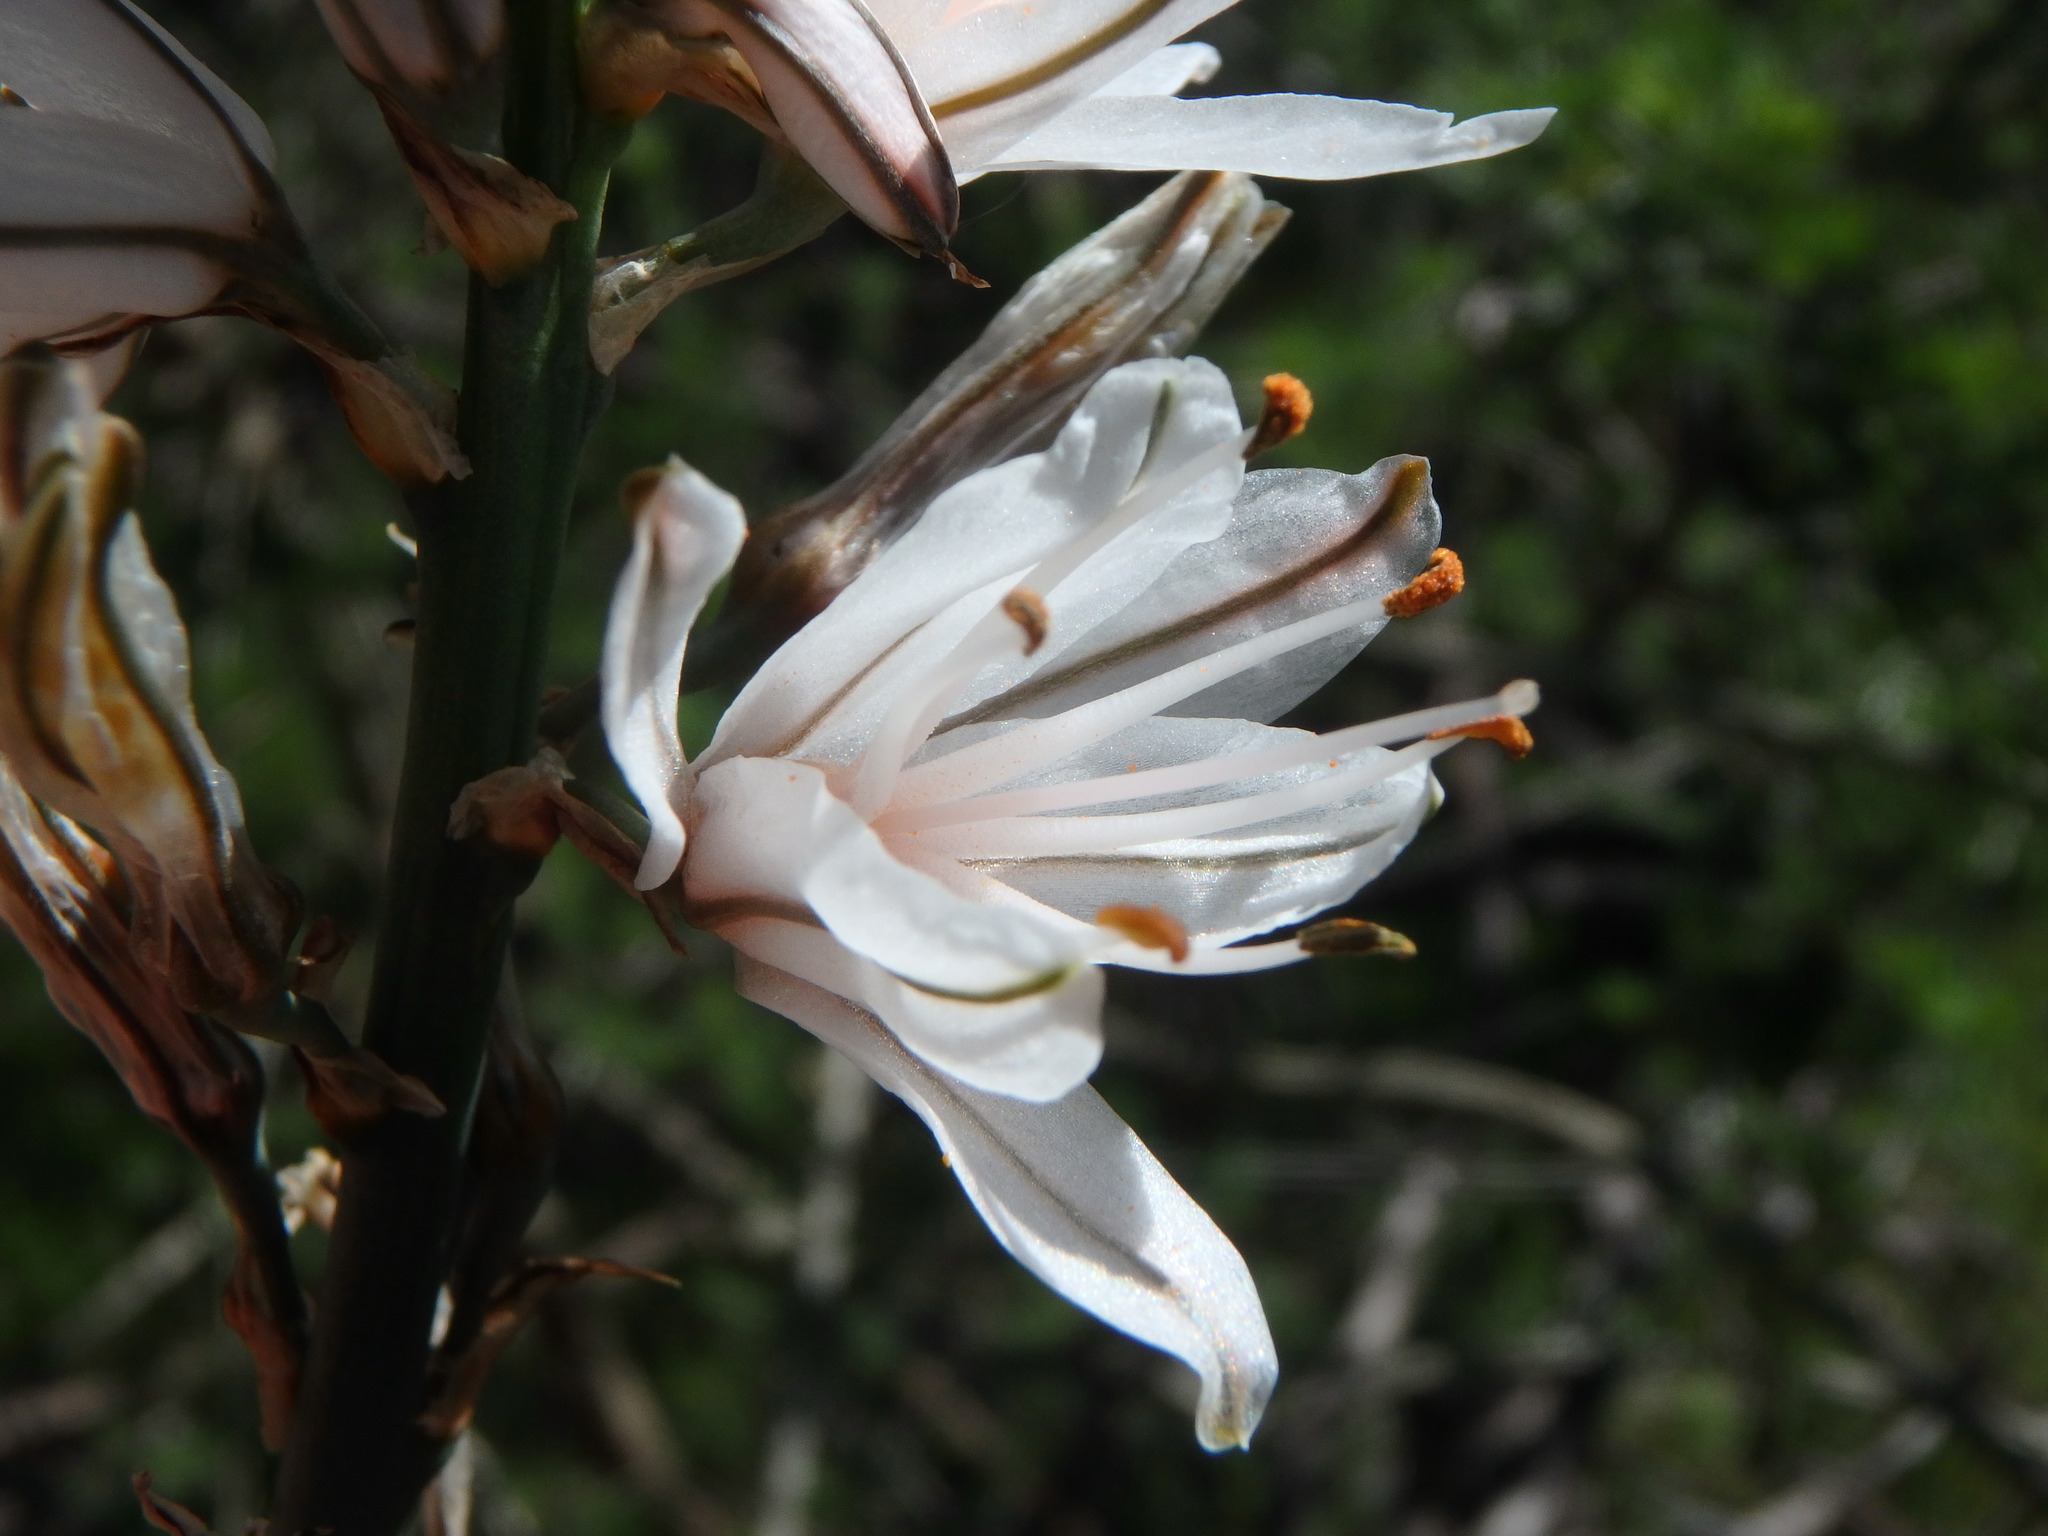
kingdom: Plantae
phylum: Tracheophyta
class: Liliopsida
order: Asparagales
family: Asphodelaceae
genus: Asphodelus
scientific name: Asphodelus ramosus
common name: Silverrod
